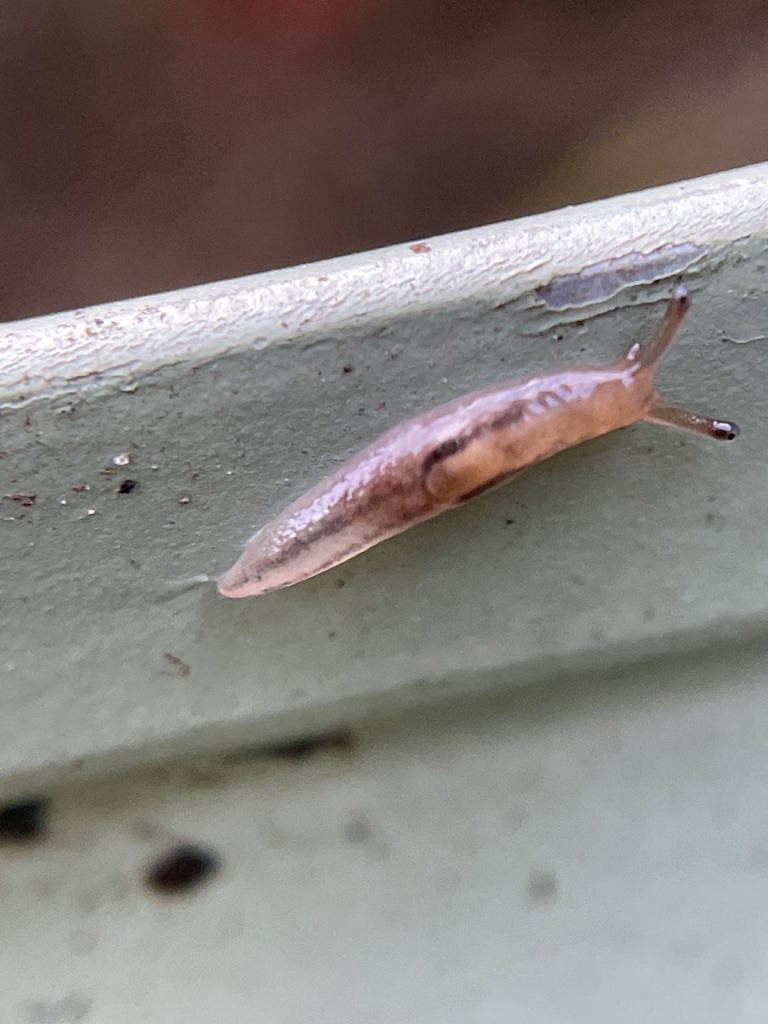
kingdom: Animalia
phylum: Mollusca
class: Gastropoda
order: Stylommatophora
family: Limacidae
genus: Ambigolimax
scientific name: Ambigolimax
